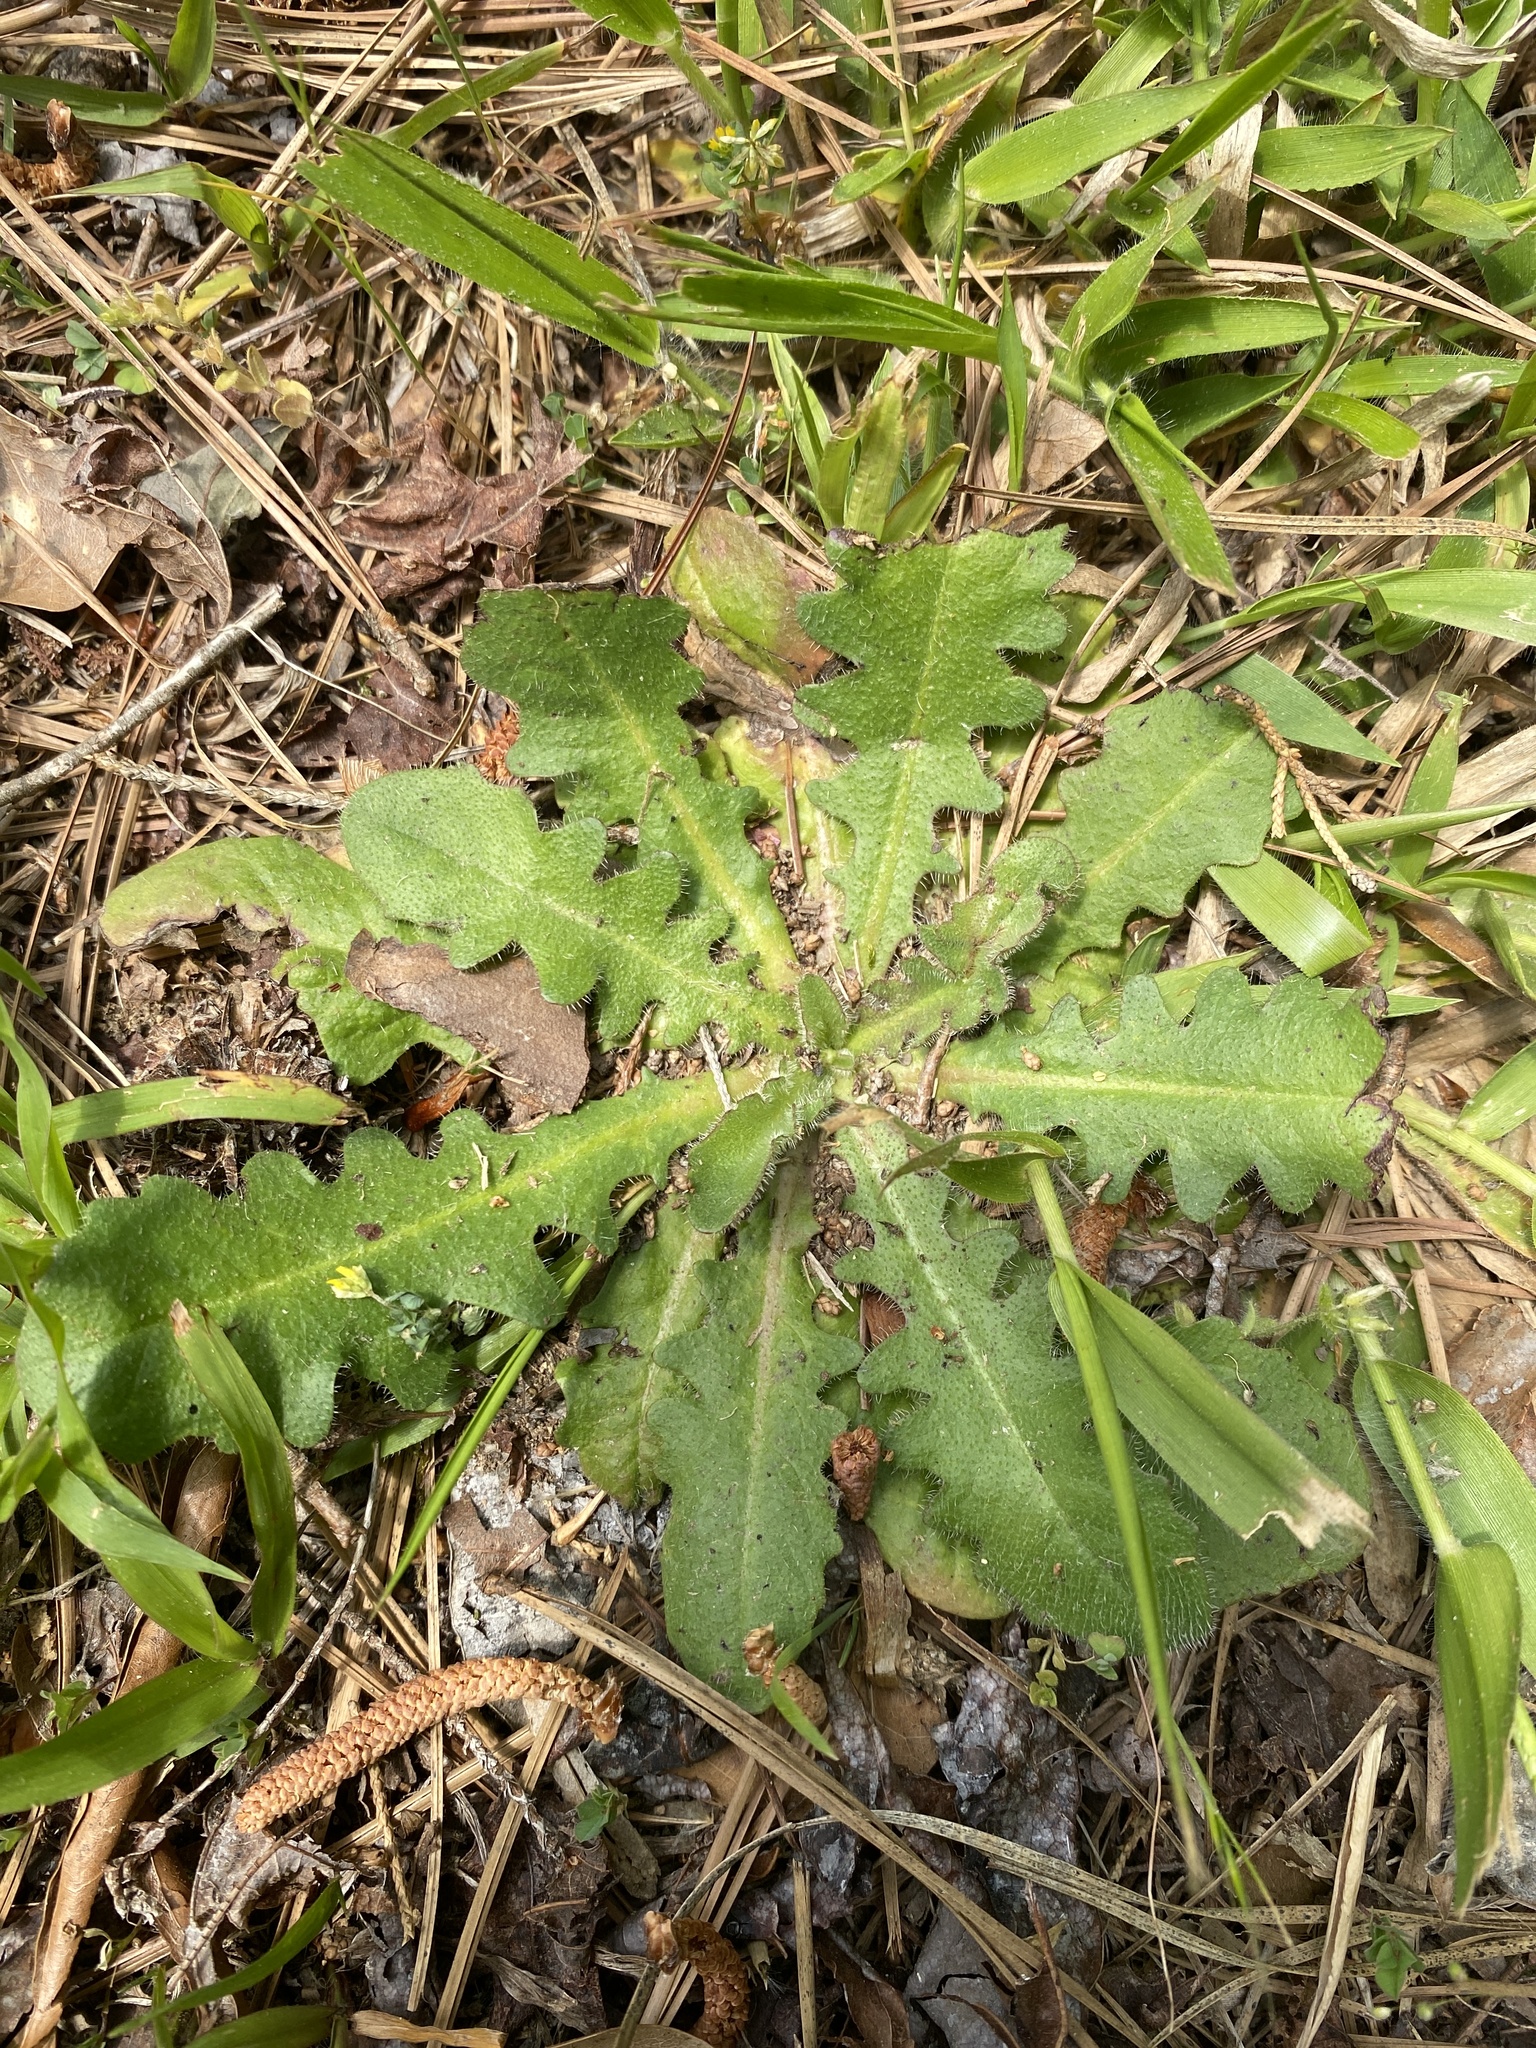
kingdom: Plantae
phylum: Tracheophyta
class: Magnoliopsida
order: Asterales
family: Asteraceae
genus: Hypochaeris
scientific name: Hypochaeris radicata
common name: Flatweed
